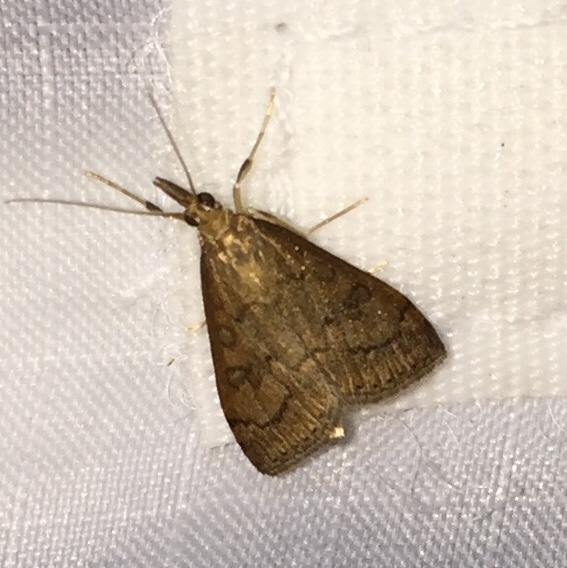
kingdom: Animalia
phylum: Arthropoda
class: Insecta
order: Lepidoptera
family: Crambidae
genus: Udea
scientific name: Udea rubigalis
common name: Celery leaftier moth
